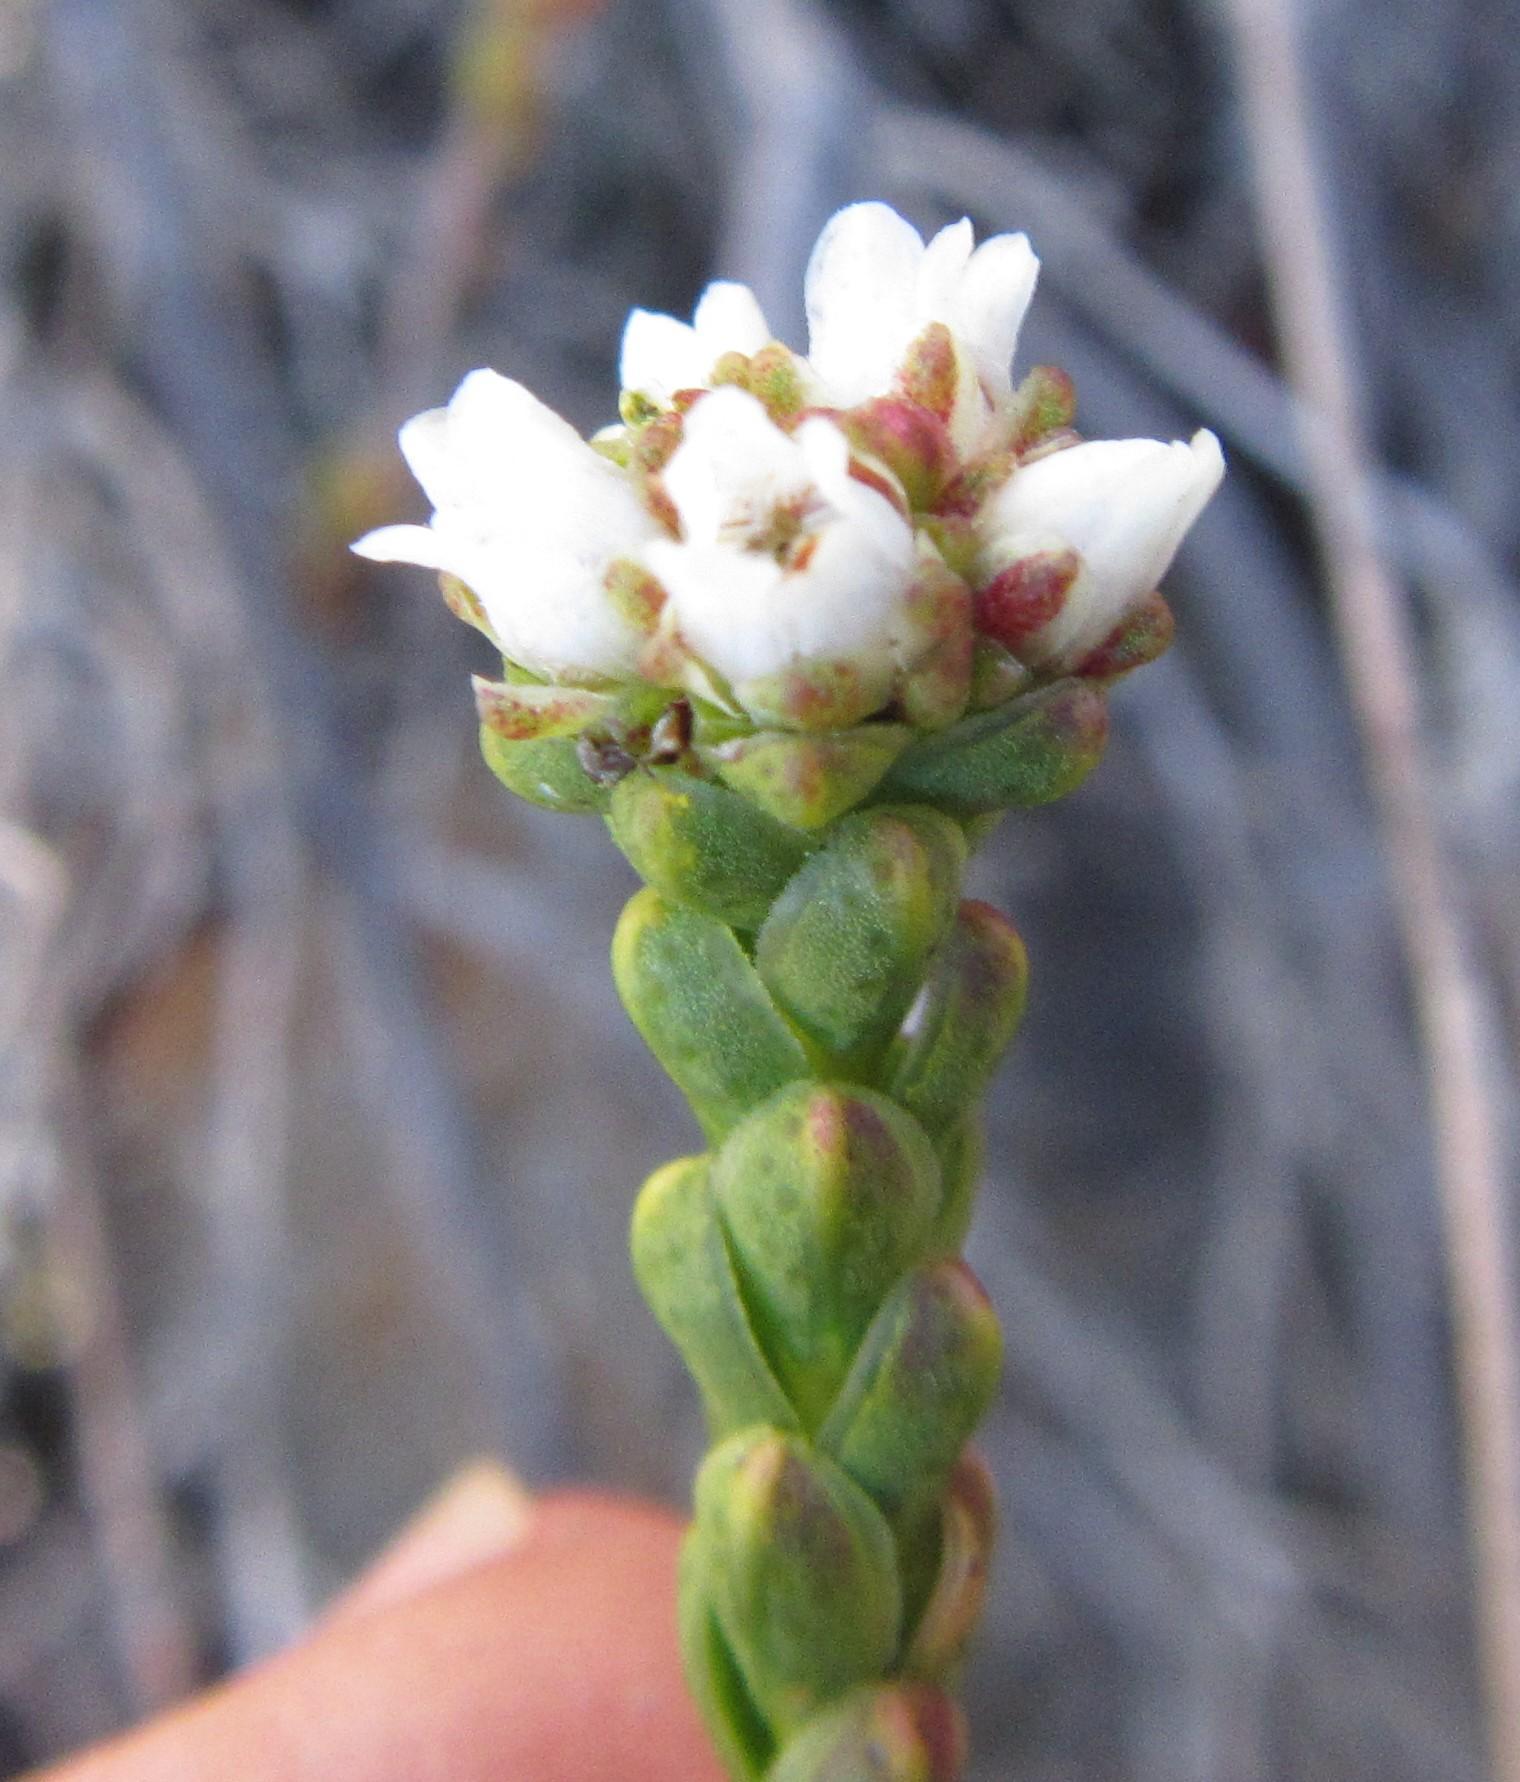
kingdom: Plantae
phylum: Tracheophyta
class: Magnoliopsida
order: Sapindales
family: Rutaceae
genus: Euchaetis
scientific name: Euchaetis flexilis
